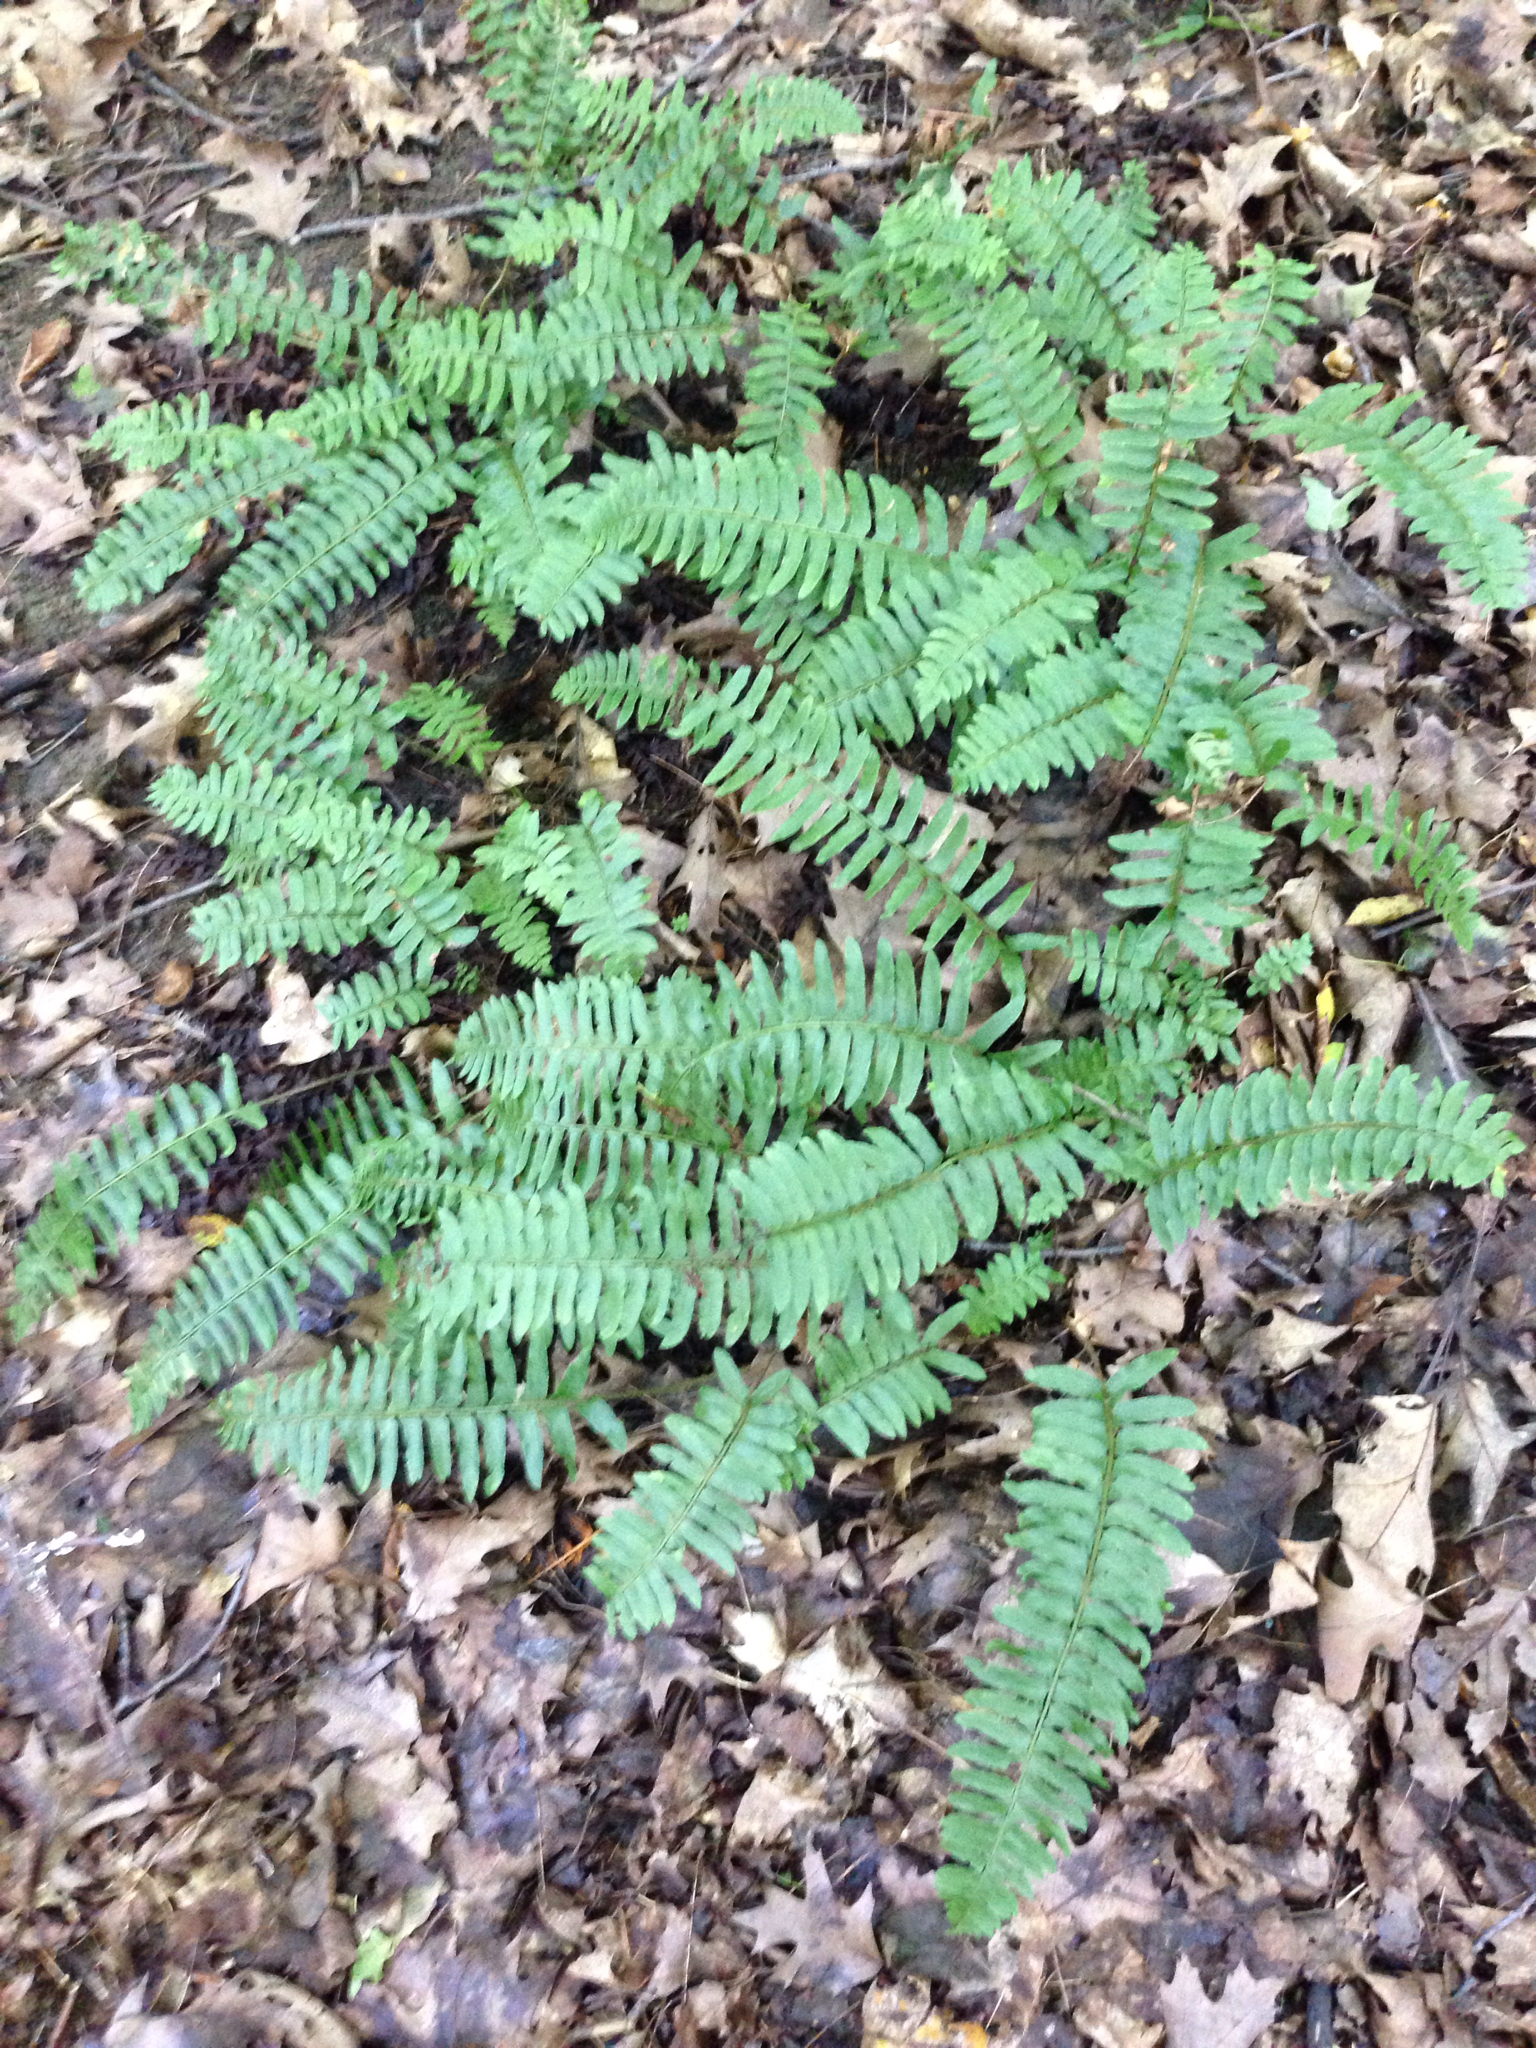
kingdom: Plantae
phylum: Tracheophyta
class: Polypodiopsida
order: Polypodiales
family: Dryopteridaceae
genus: Polystichum
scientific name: Polystichum acrostichoides
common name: Christmas fern
